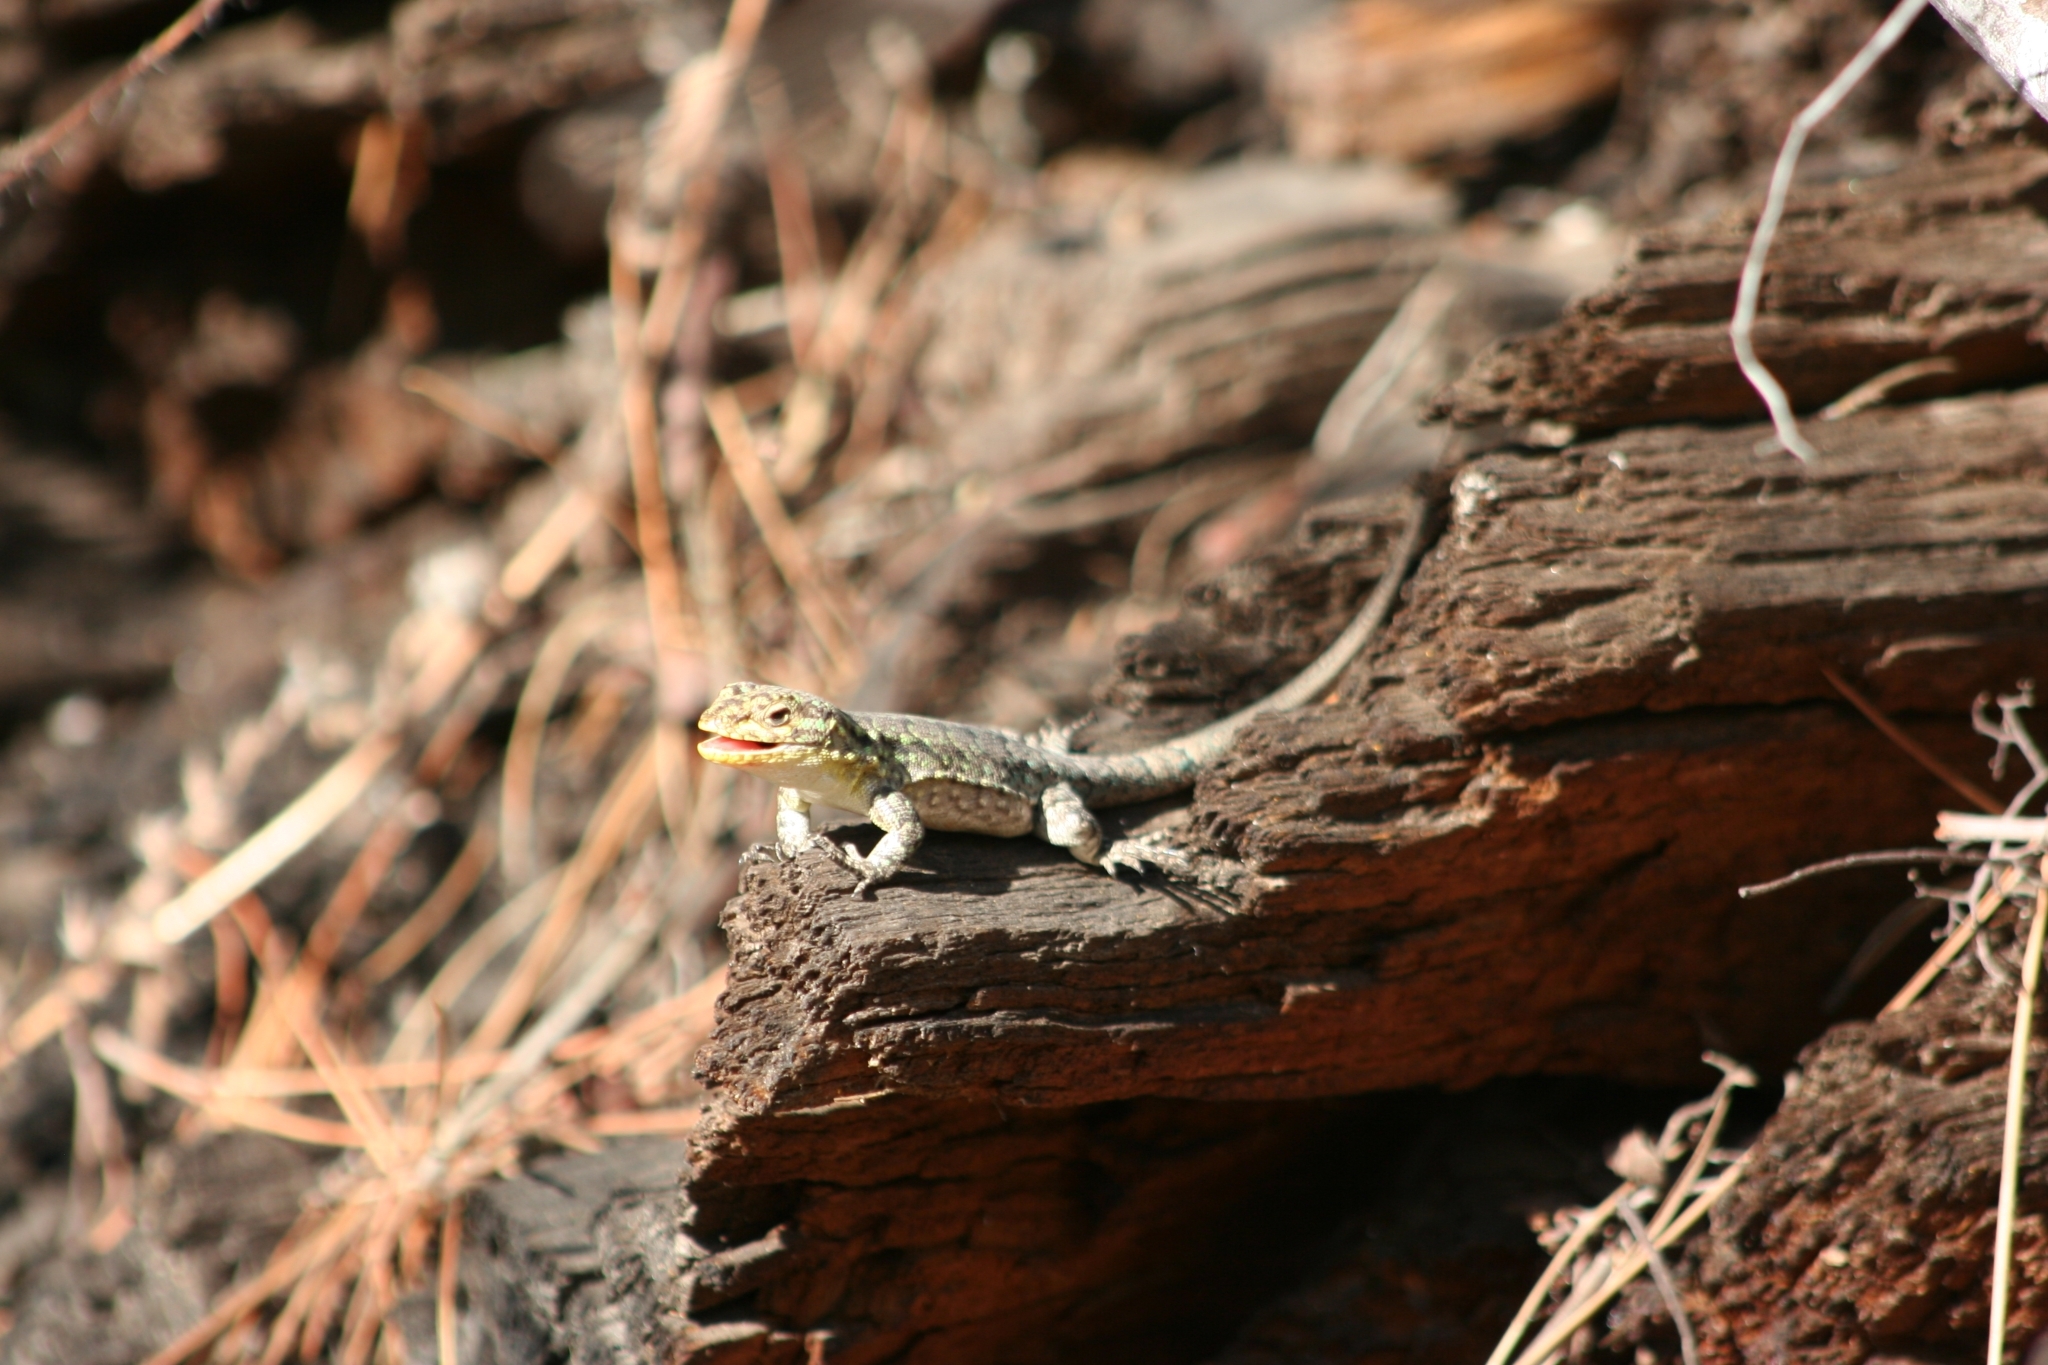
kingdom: Animalia
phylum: Chordata
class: Squamata
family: Liolaemidae
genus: Liolaemus
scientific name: Liolaemus tenuis
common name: Thin tree iguana
